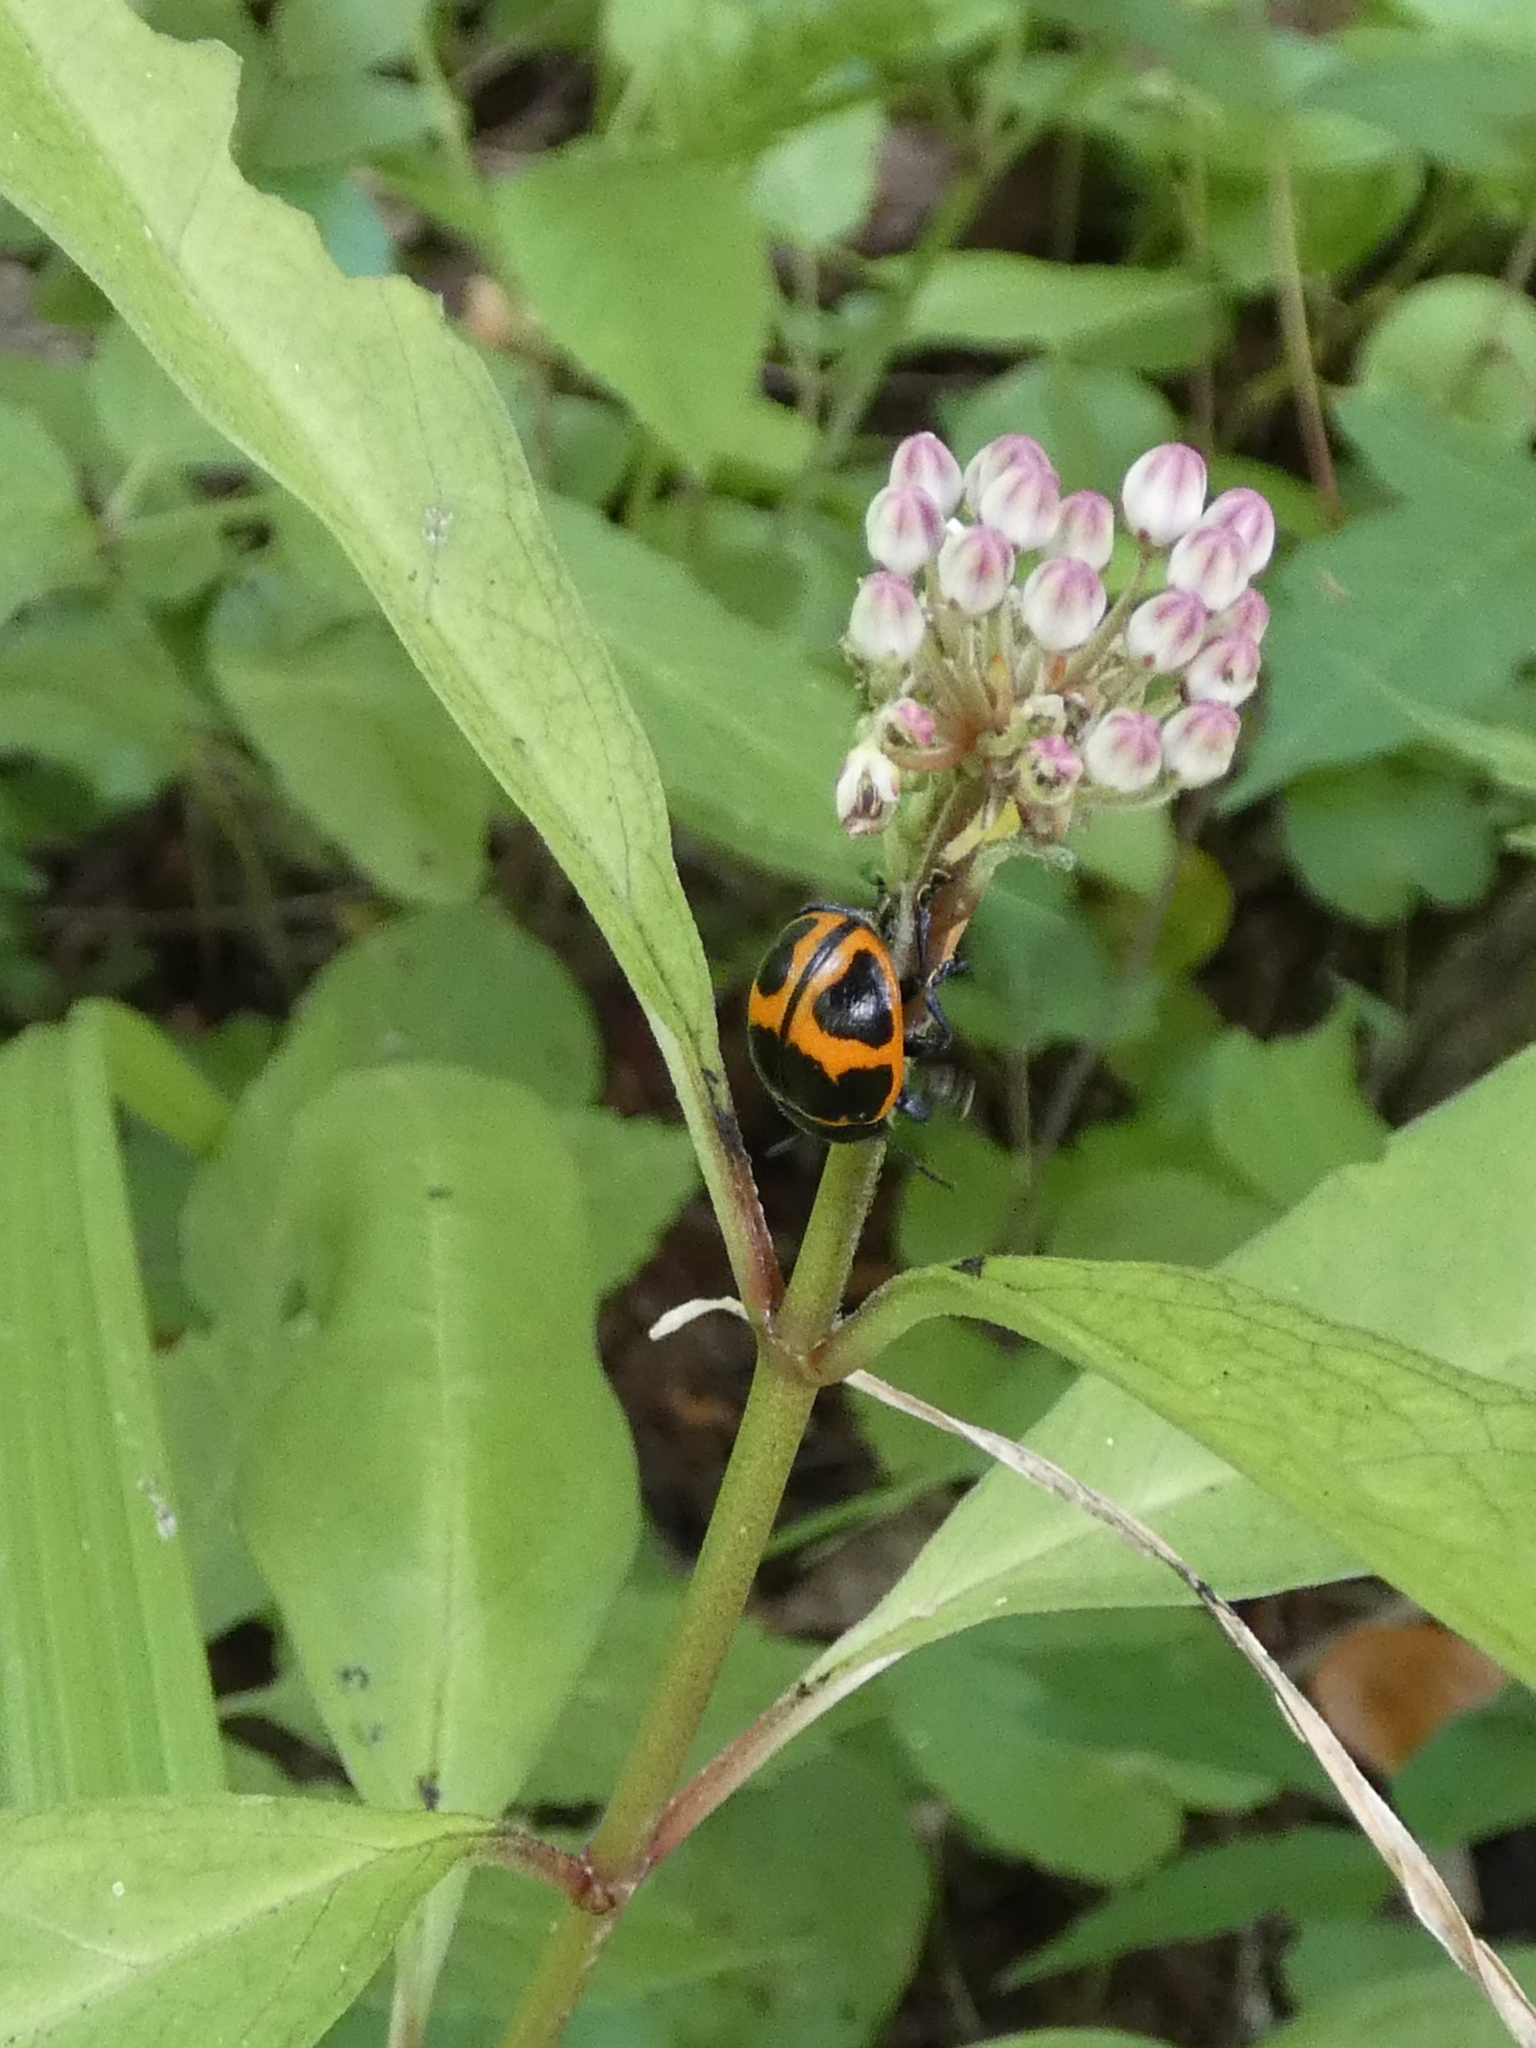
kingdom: Animalia
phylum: Arthropoda
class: Insecta
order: Coleoptera
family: Chrysomelidae
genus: Labidomera
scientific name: Labidomera clivicollis
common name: Swamp milkweed leaf beetle
